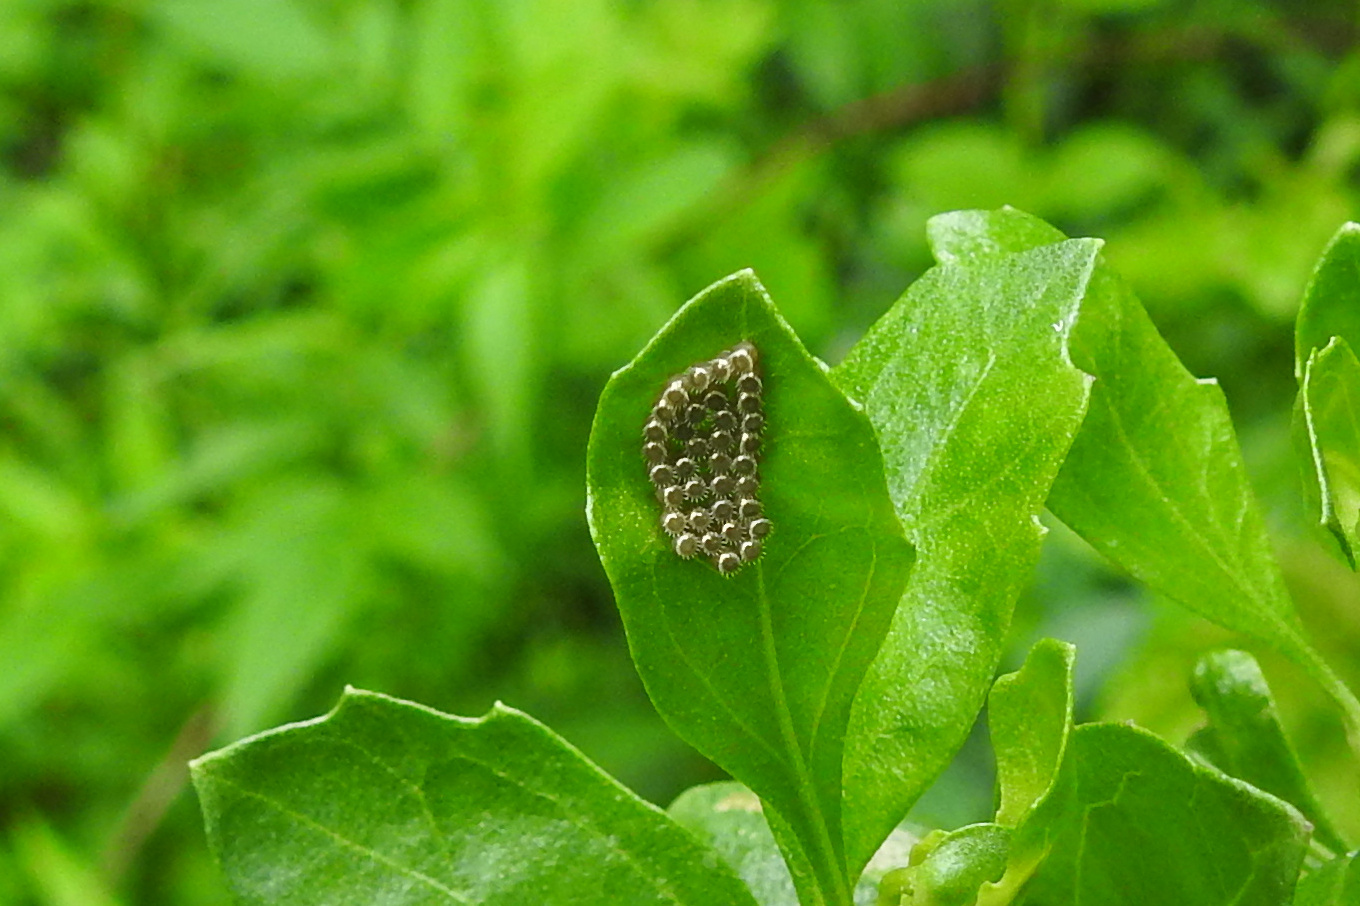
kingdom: Animalia
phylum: Arthropoda
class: Insecta
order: Hemiptera
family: Pentatomidae
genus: Podisus
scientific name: Podisus
